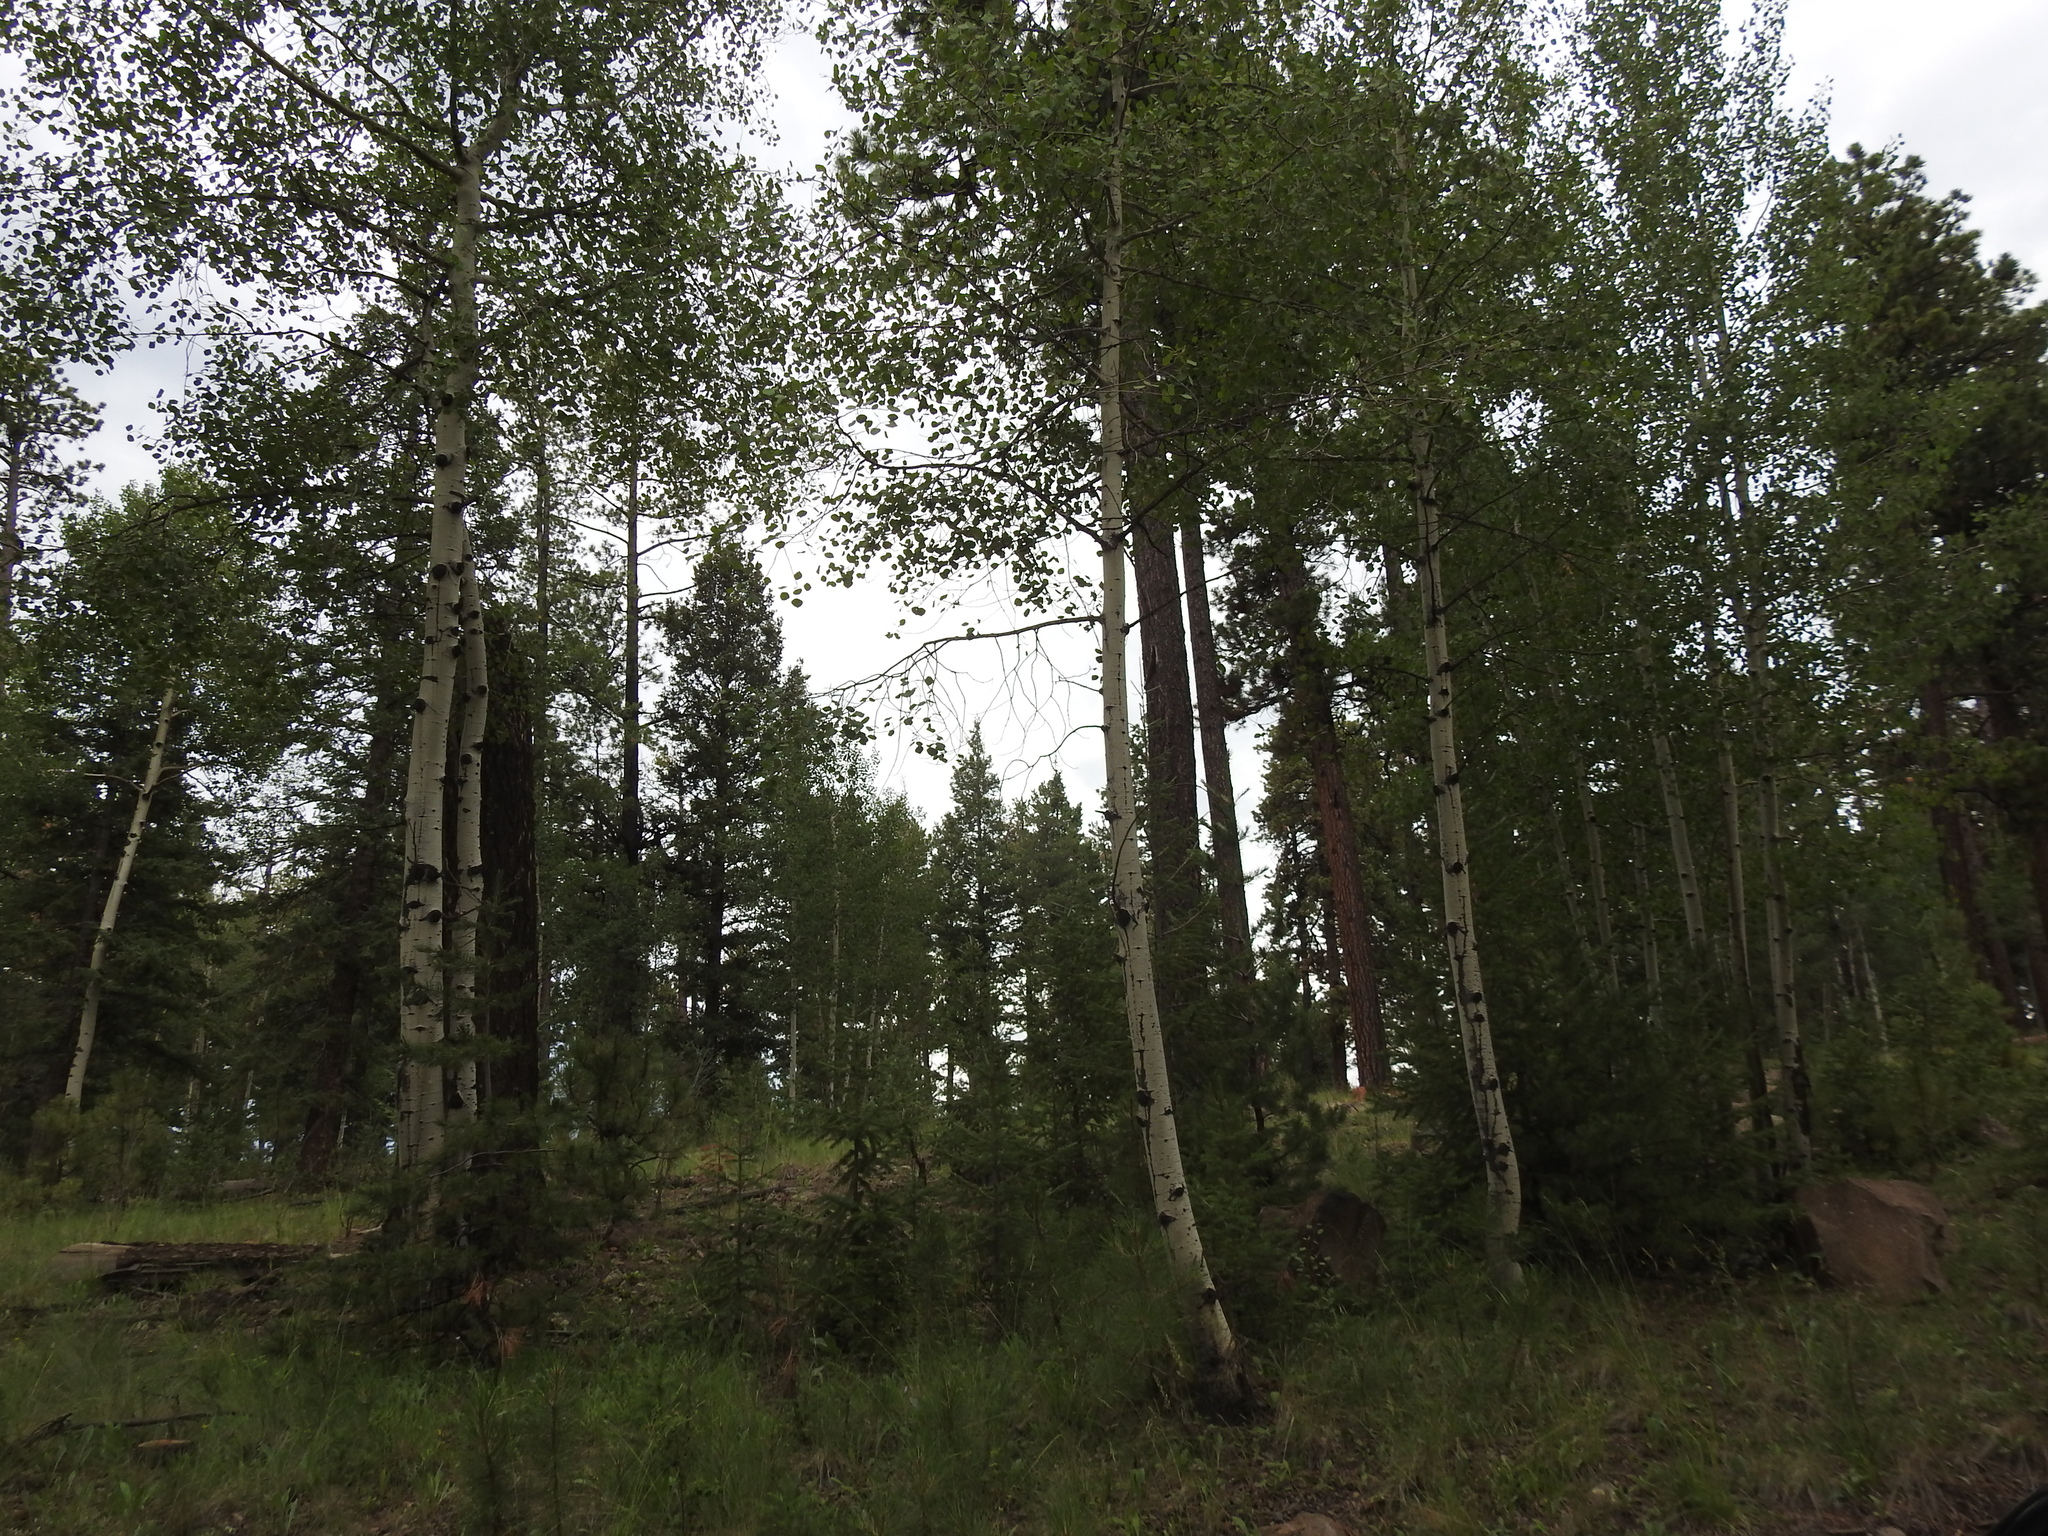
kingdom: Plantae
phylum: Tracheophyta
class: Magnoliopsida
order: Malpighiales
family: Salicaceae
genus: Populus
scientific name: Populus tremuloides
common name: Quaking aspen
